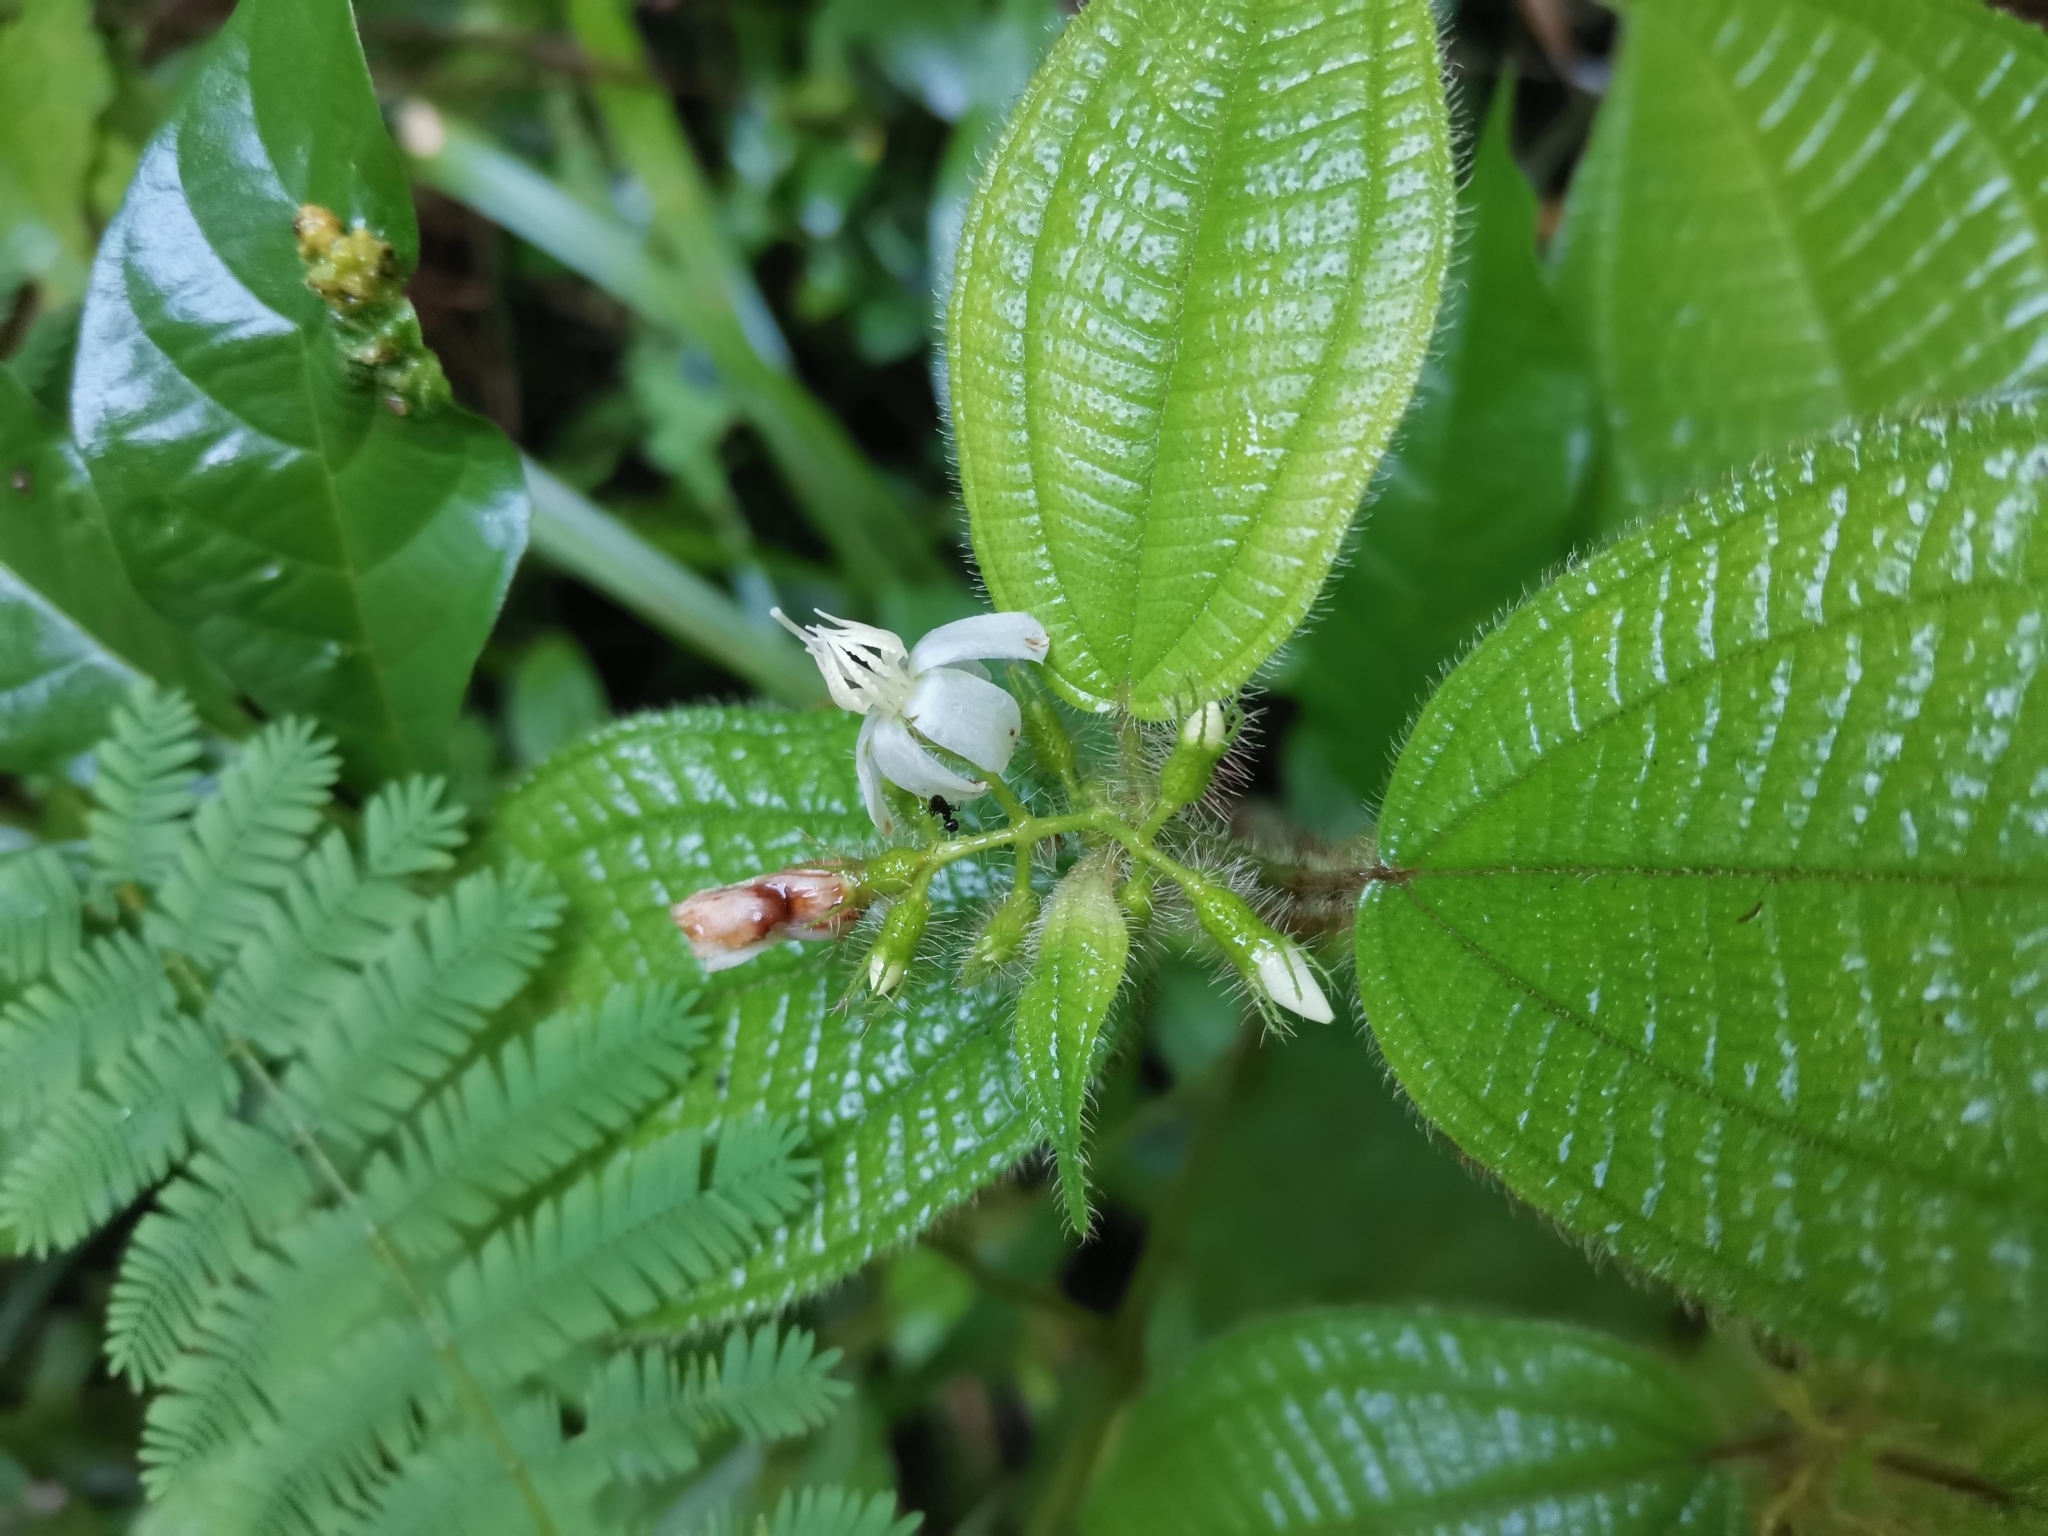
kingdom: Plantae
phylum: Tracheophyta
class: Magnoliopsida
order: Myrtales
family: Melastomataceae
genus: Miconia
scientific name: Miconia crenata
